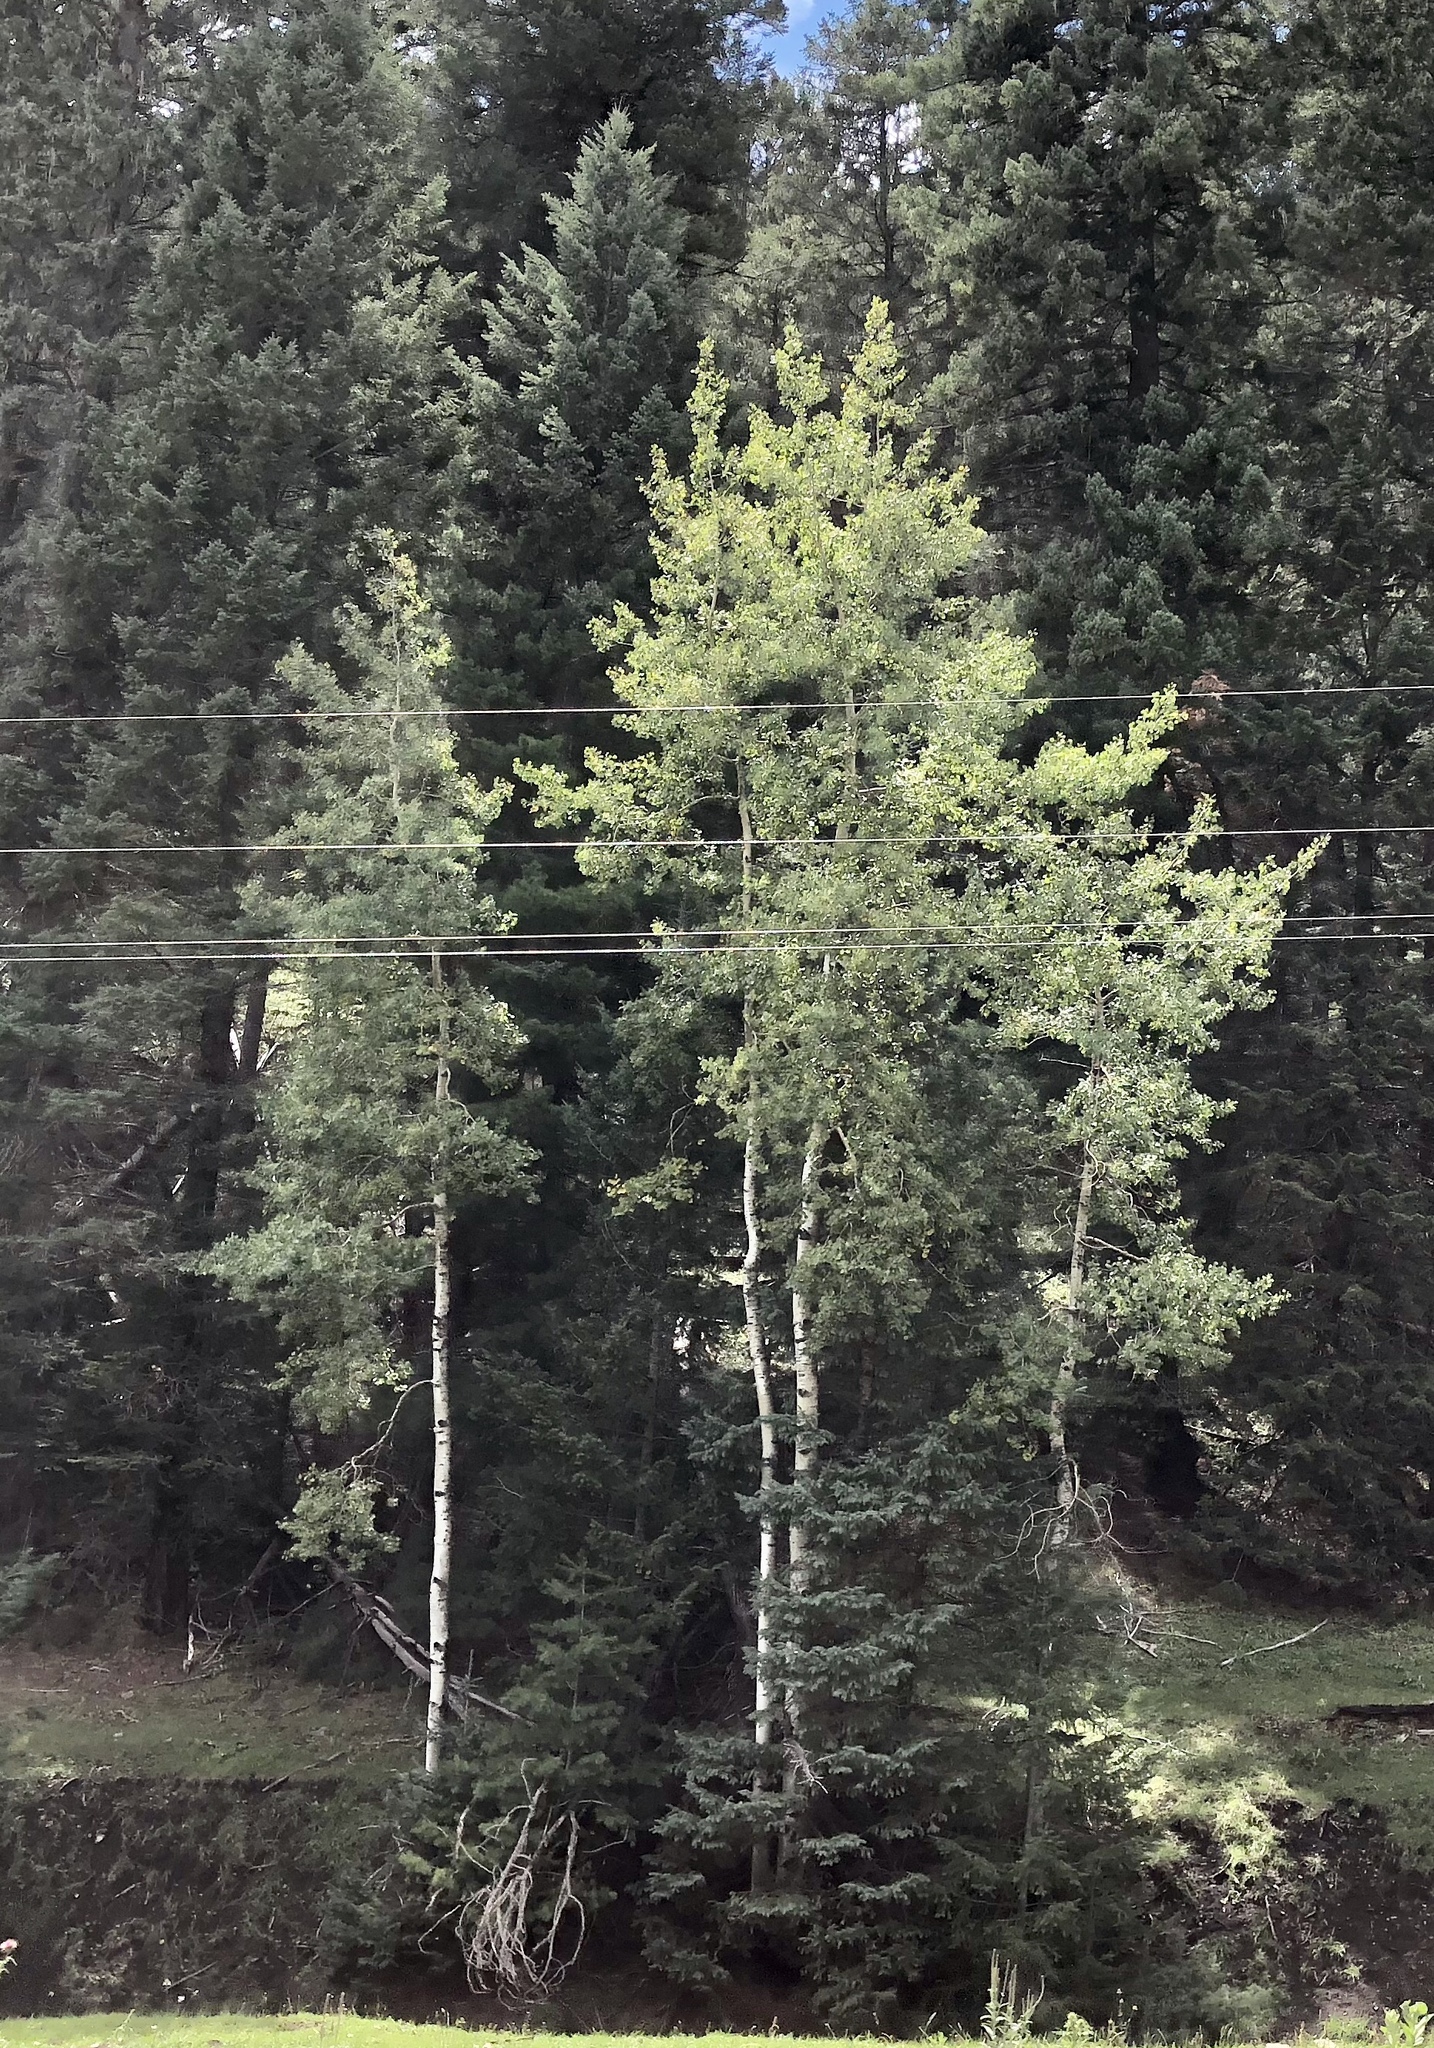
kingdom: Plantae
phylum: Tracheophyta
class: Magnoliopsida
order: Malpighiales
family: Salicaceae
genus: Populus
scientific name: Populus tremuloides
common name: Quaking aspen
